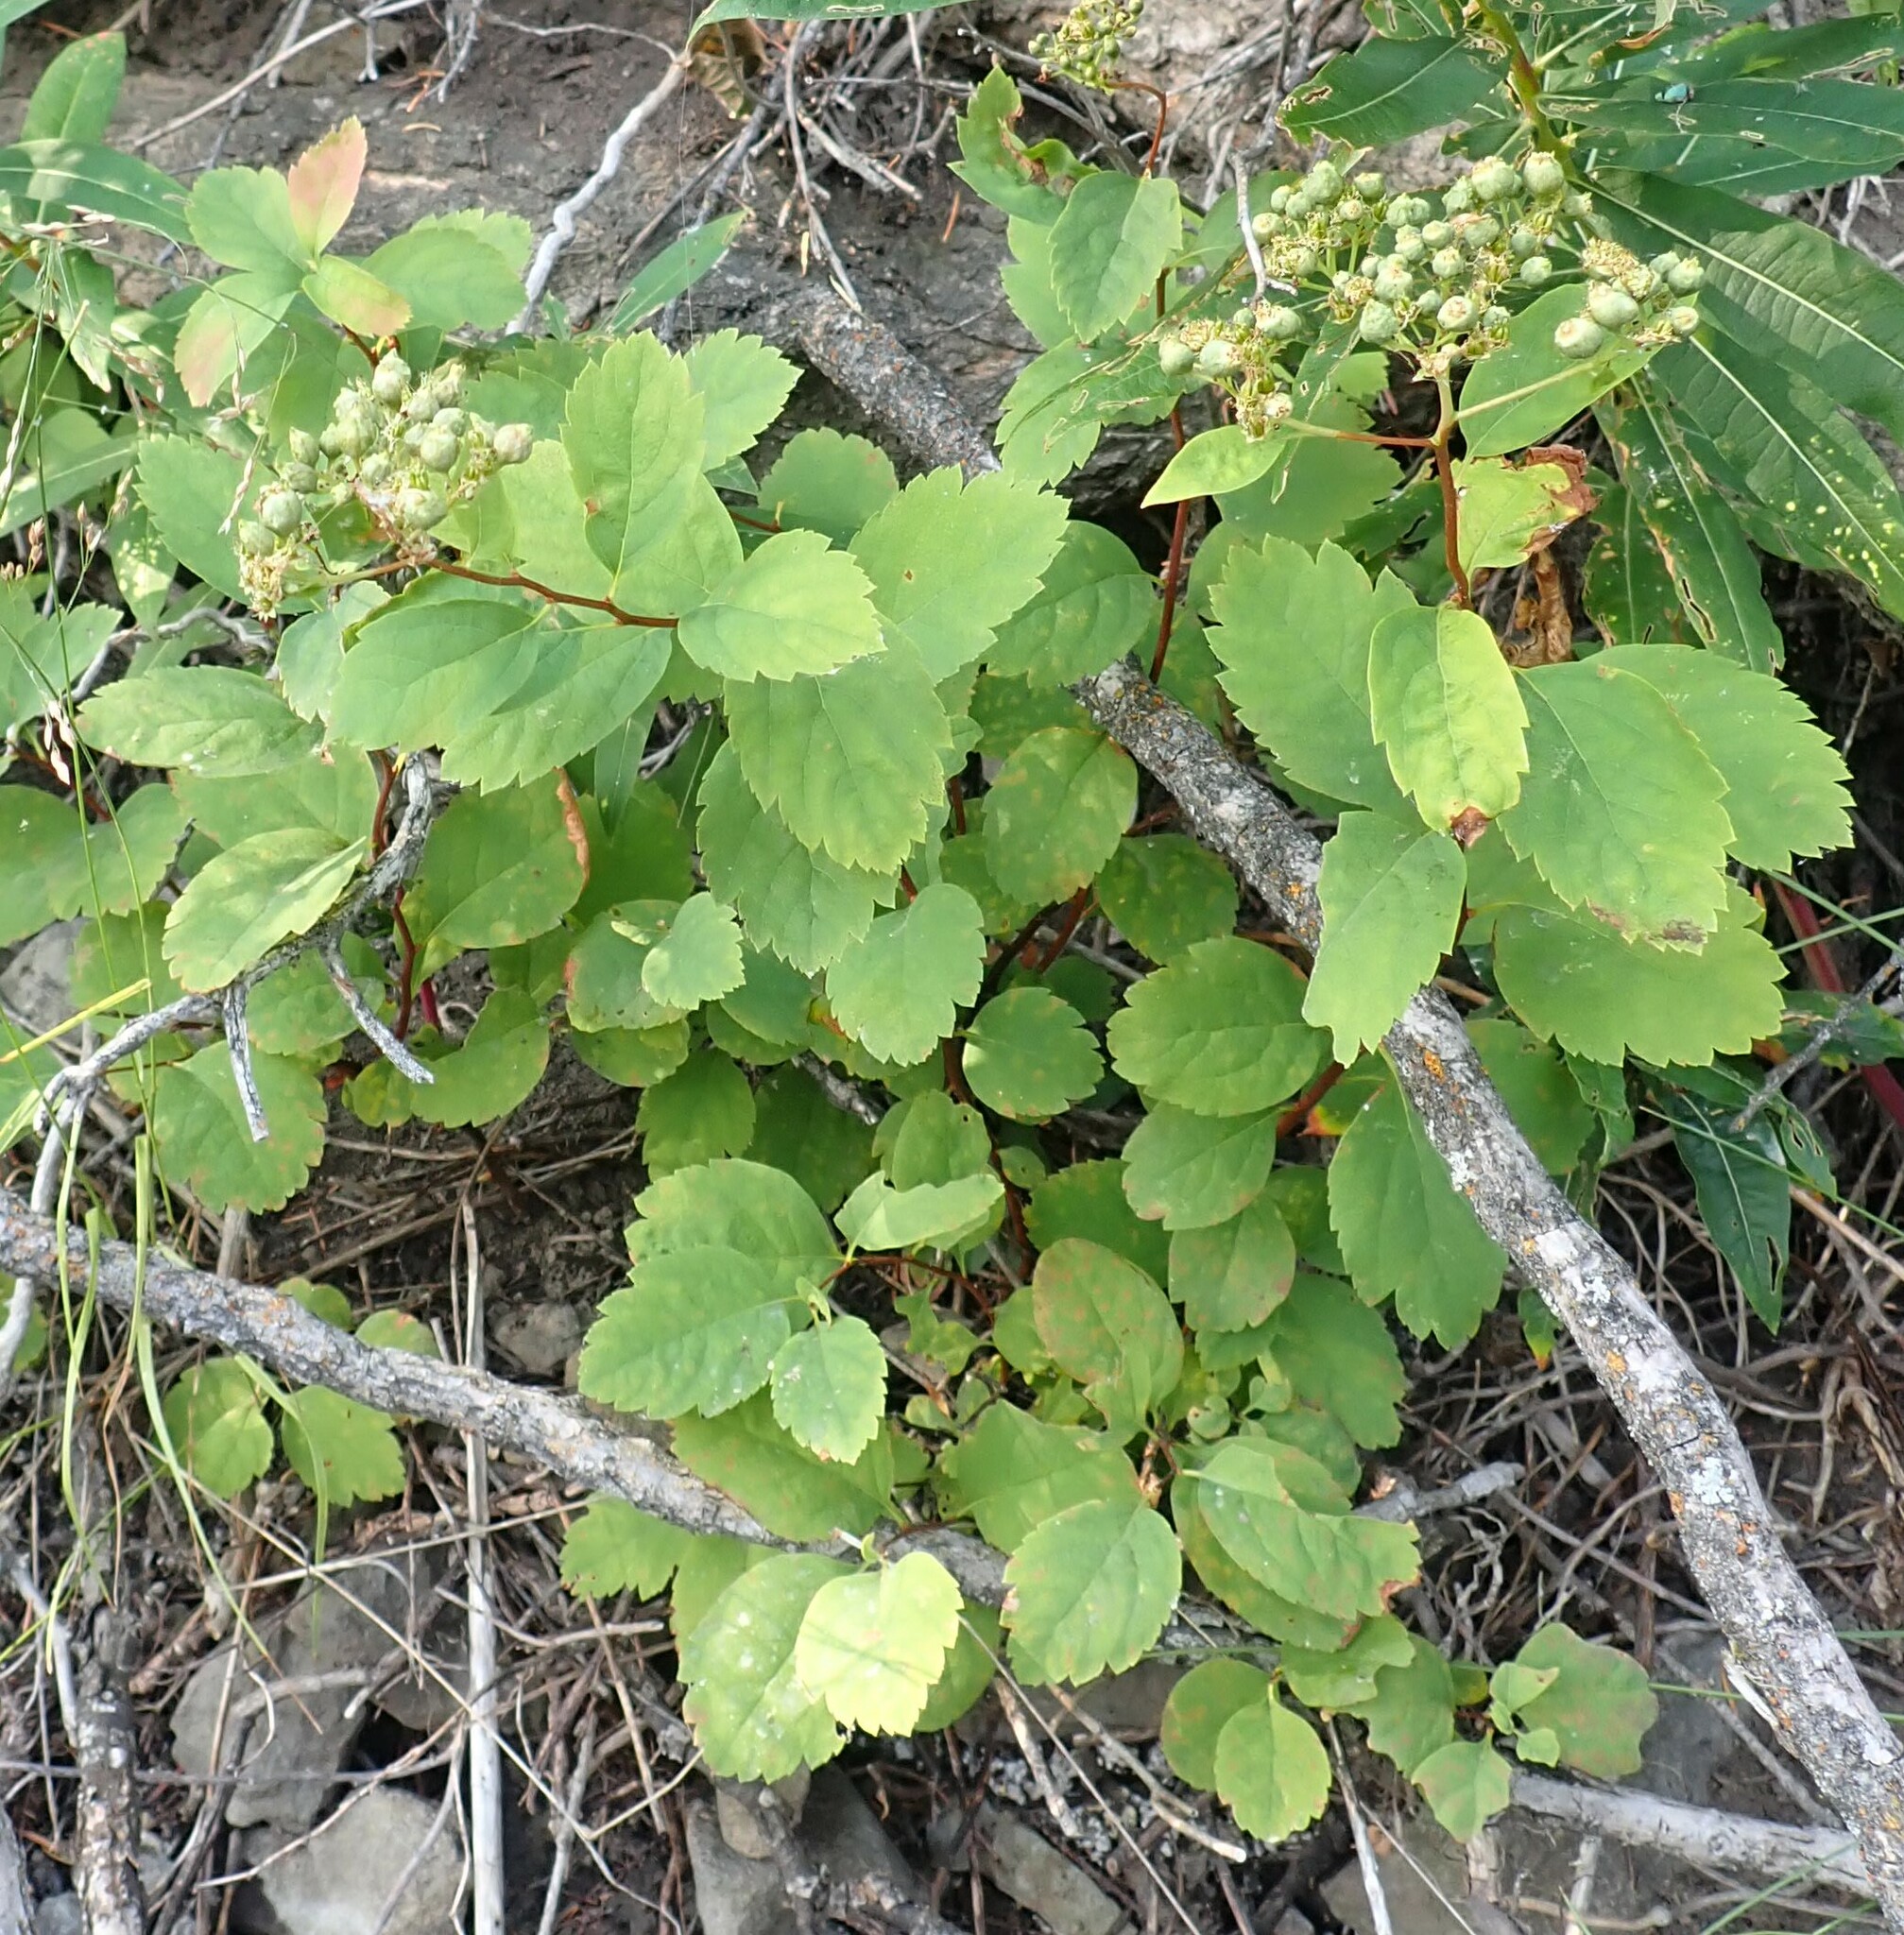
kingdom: Plantae
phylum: Tracheophyta
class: Magnoliopsida
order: Rosales
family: Rosaceae
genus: Spiraea
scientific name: Spiraea lucida
